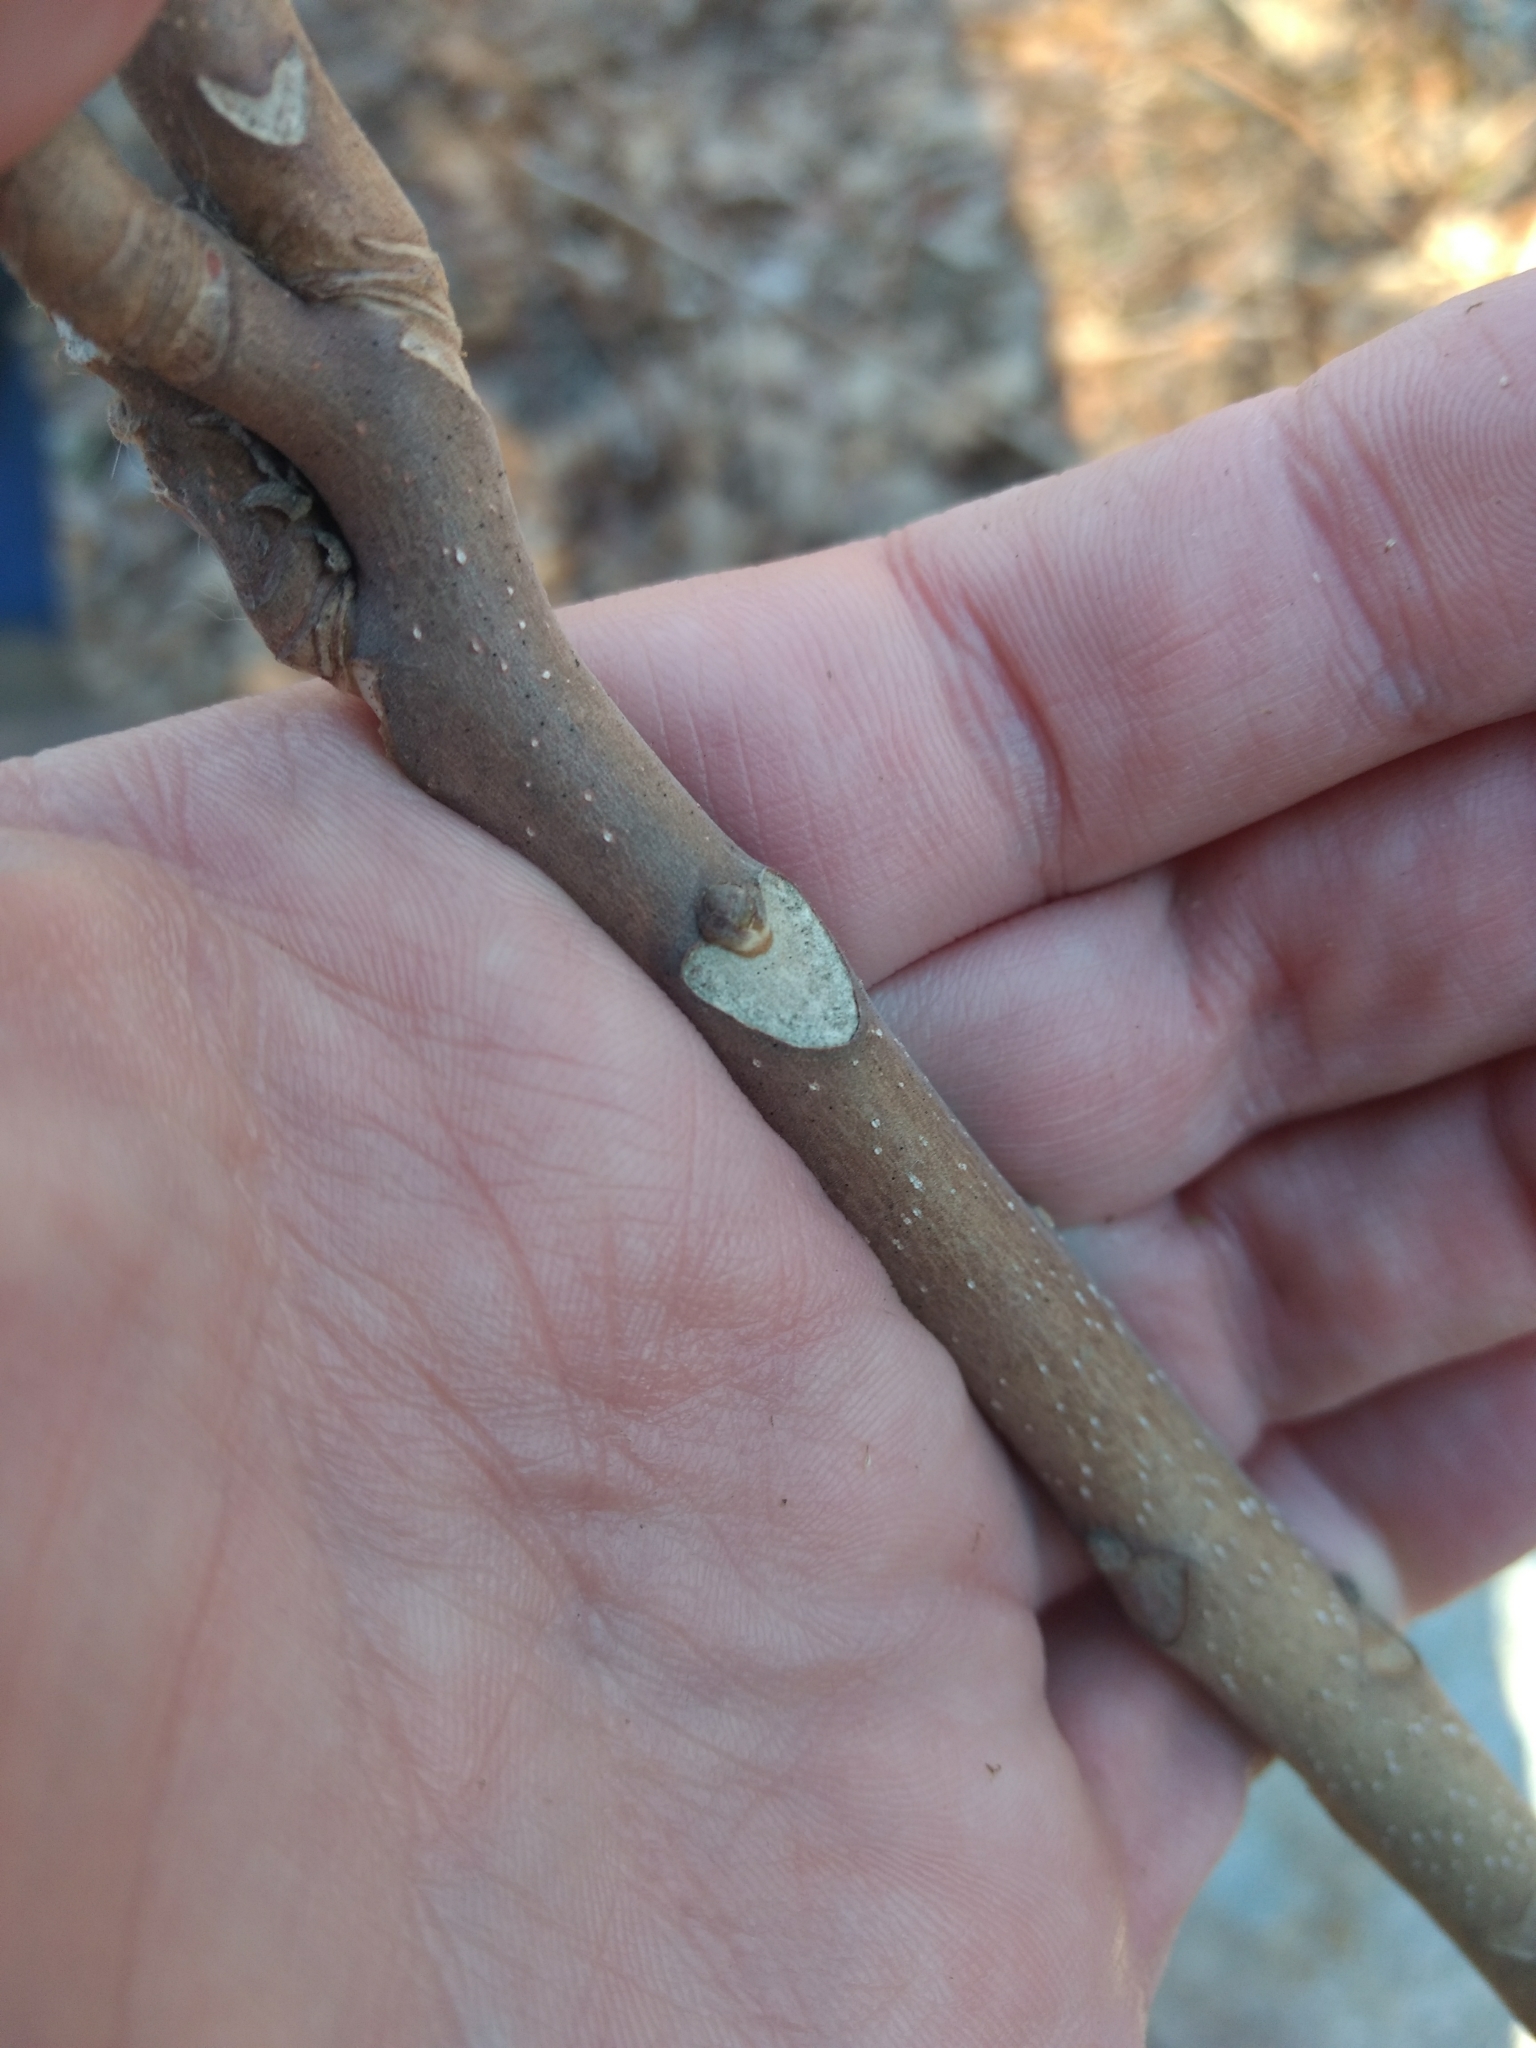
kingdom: Plantae
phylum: Tracheophyta
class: Magnoliopsida
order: Sapindales
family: Simaroubaceae
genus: Ailanthus
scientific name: Ailanthus altissima
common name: Tree-of-heaven
